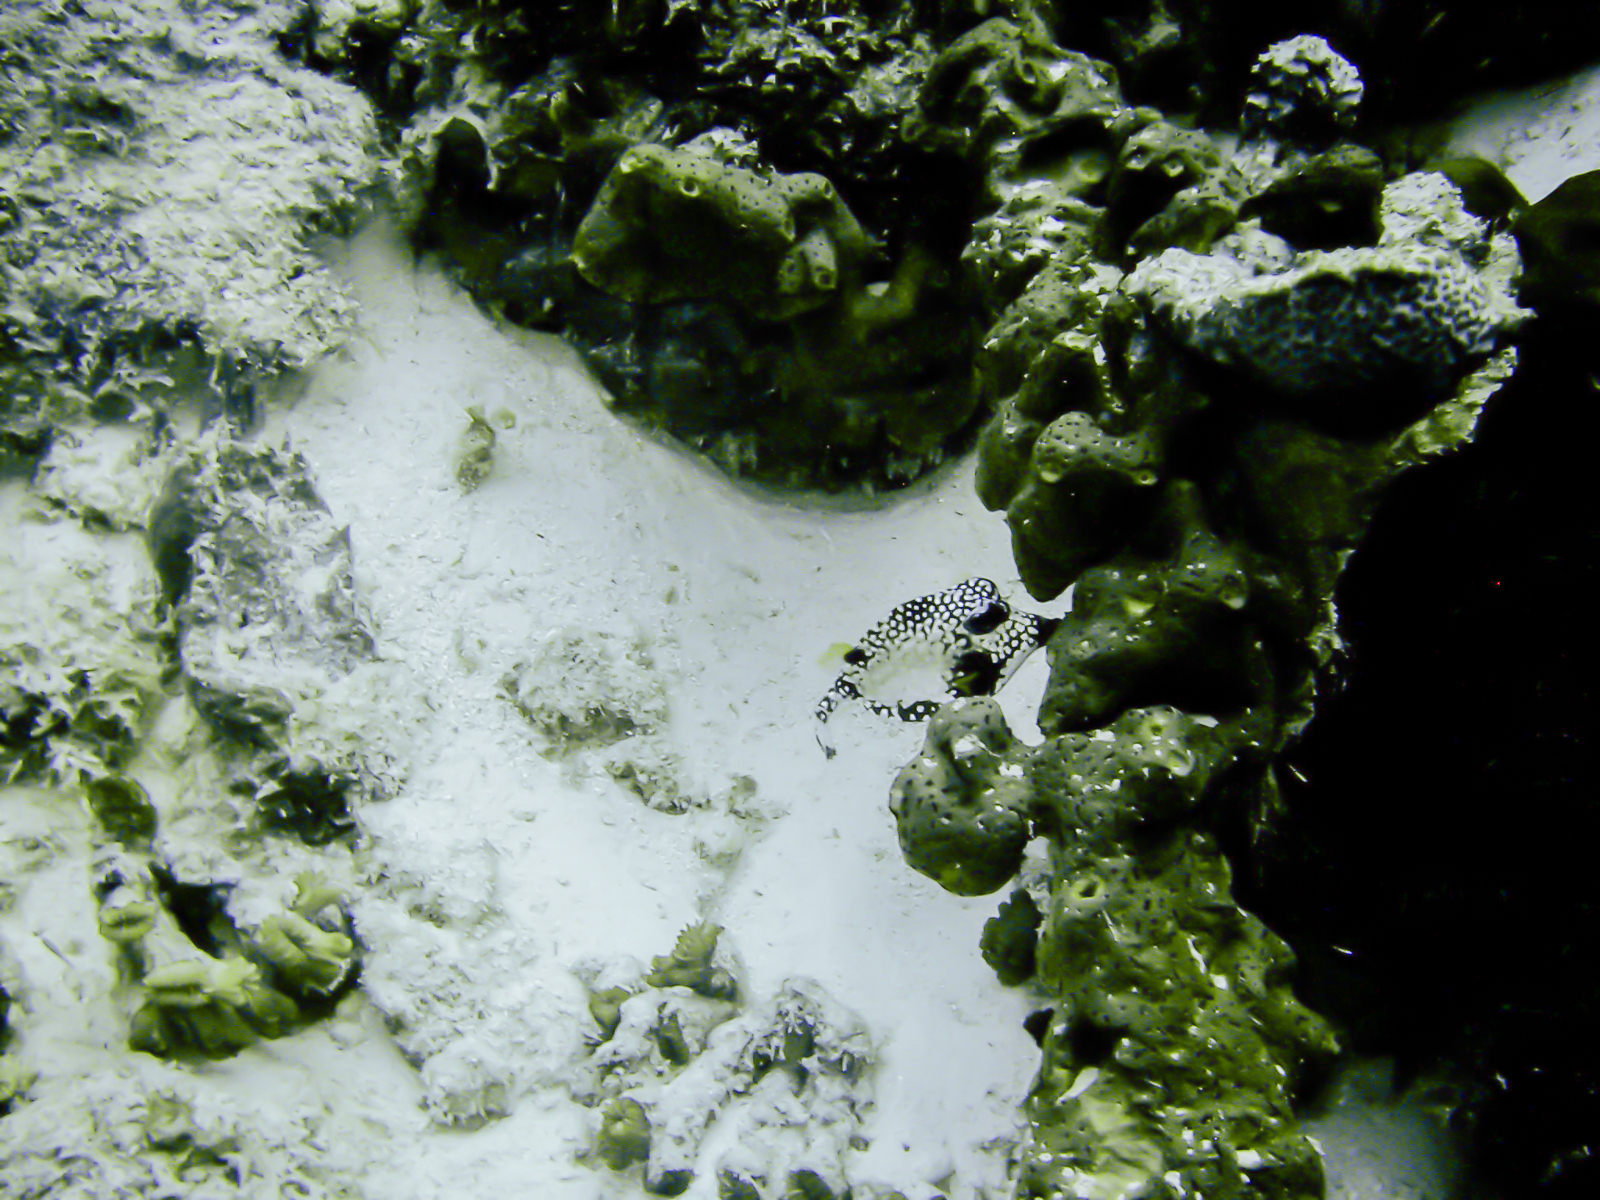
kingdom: Animalia
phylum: Chordata
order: Tetraodontiformes
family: Ostraciidae
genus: Lactophrys
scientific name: Lactophrys triqueter
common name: Smooth trunkfish
